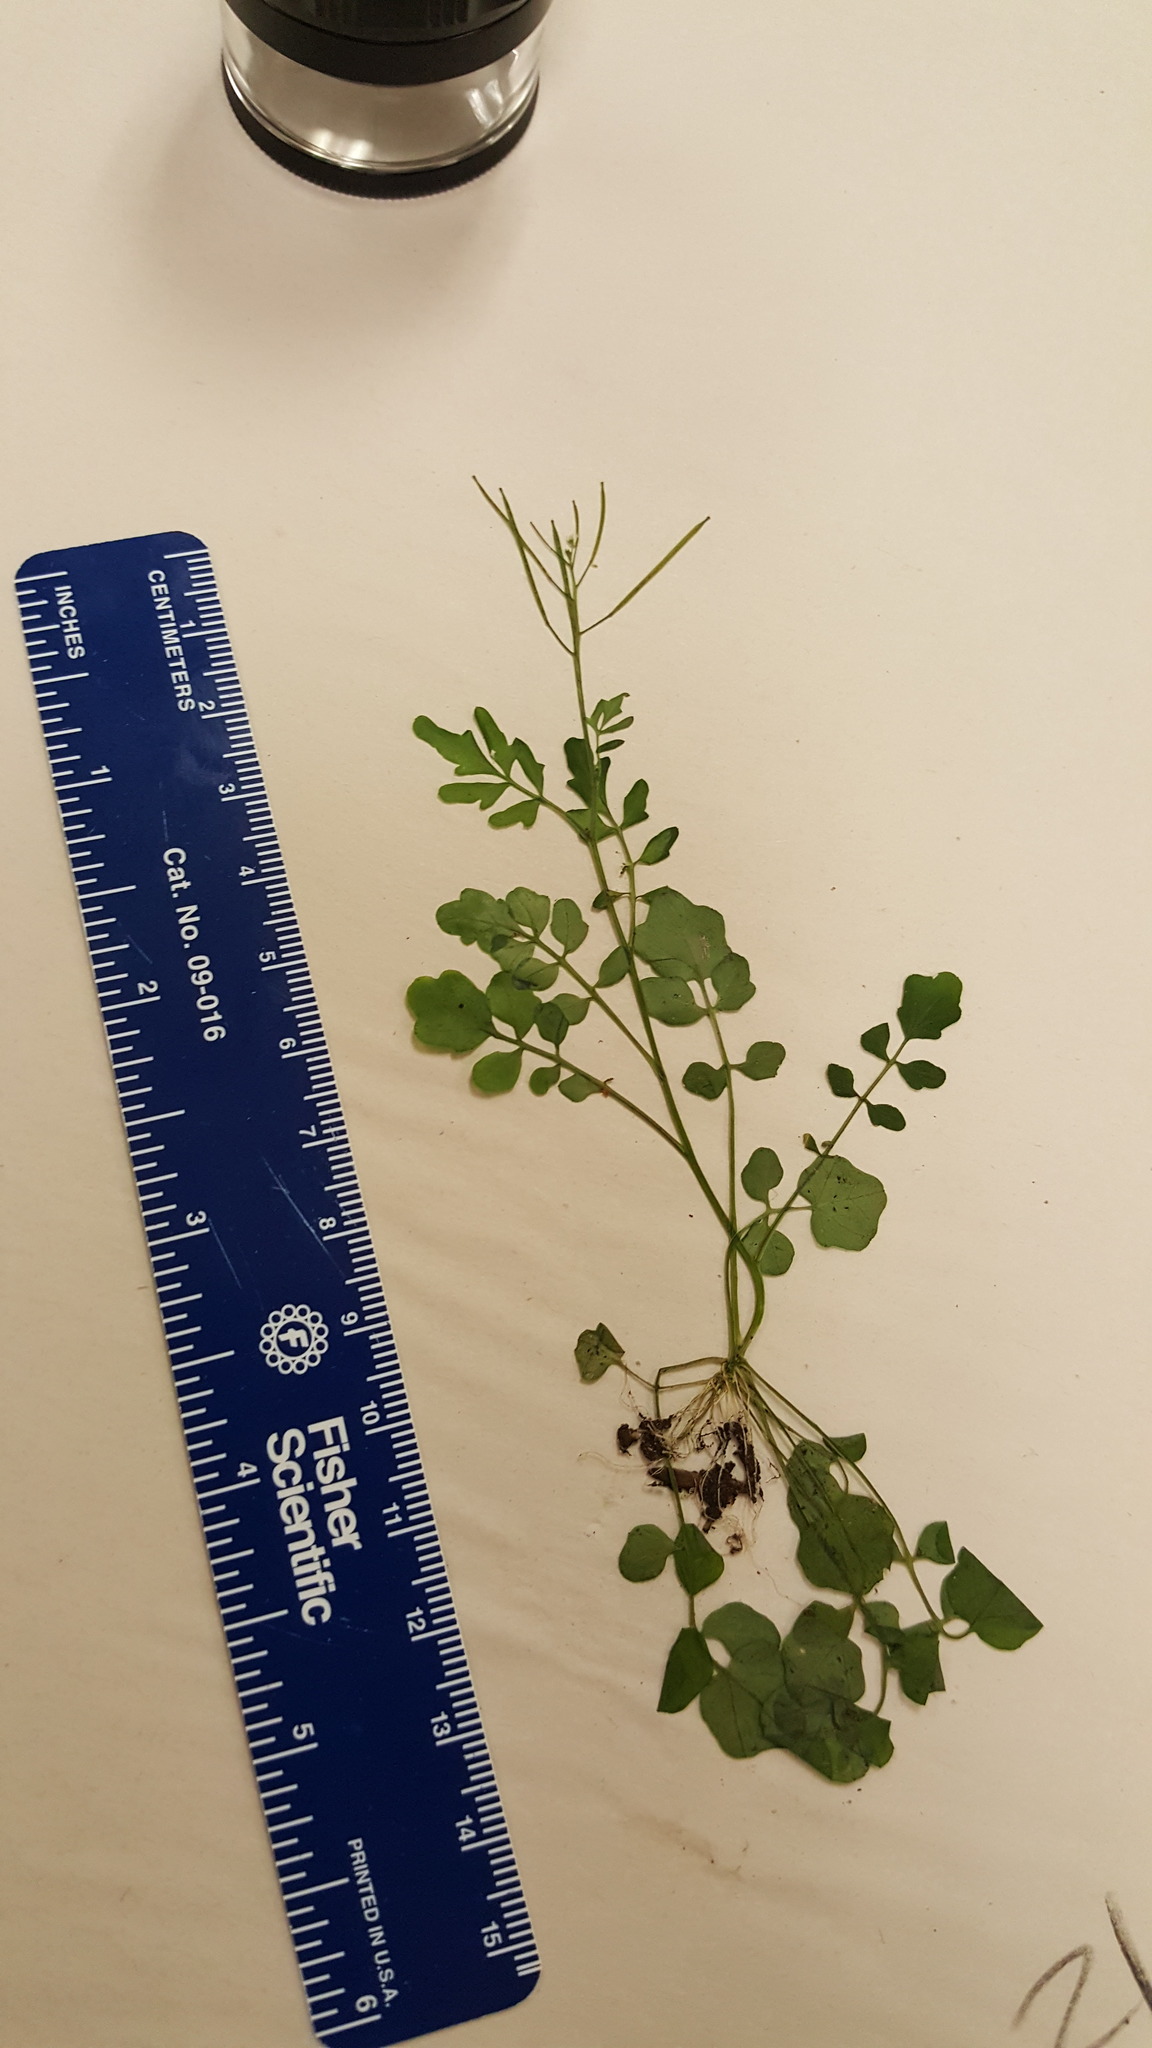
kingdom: Plantae
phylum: Tracheophyta
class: Magnoliopsida
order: Brassicales
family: Brassicaceae
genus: Cardamine
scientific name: Cardamine pensylvanica
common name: Pennsylvania bittercress
